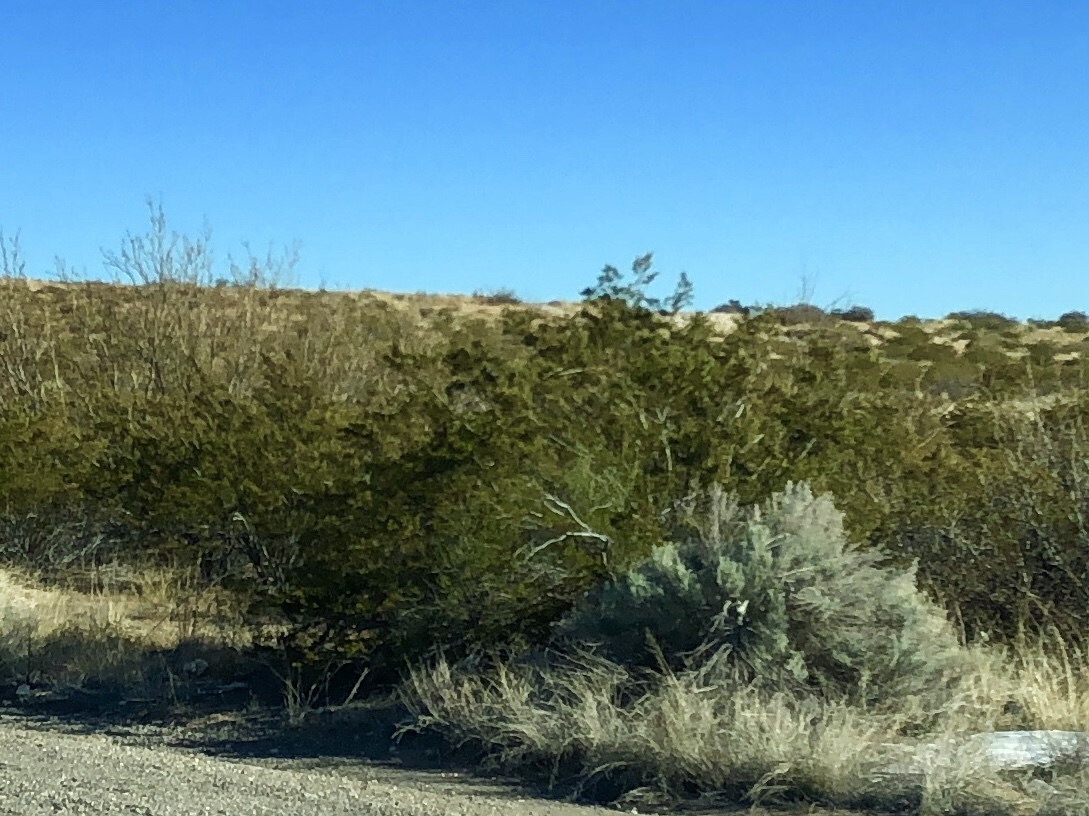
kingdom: Plantae
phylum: Tracheophyta
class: Magnoliopsida
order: Zygophyllales
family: Zygophyllaceae
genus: Larrea
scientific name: Larrea tridentata
